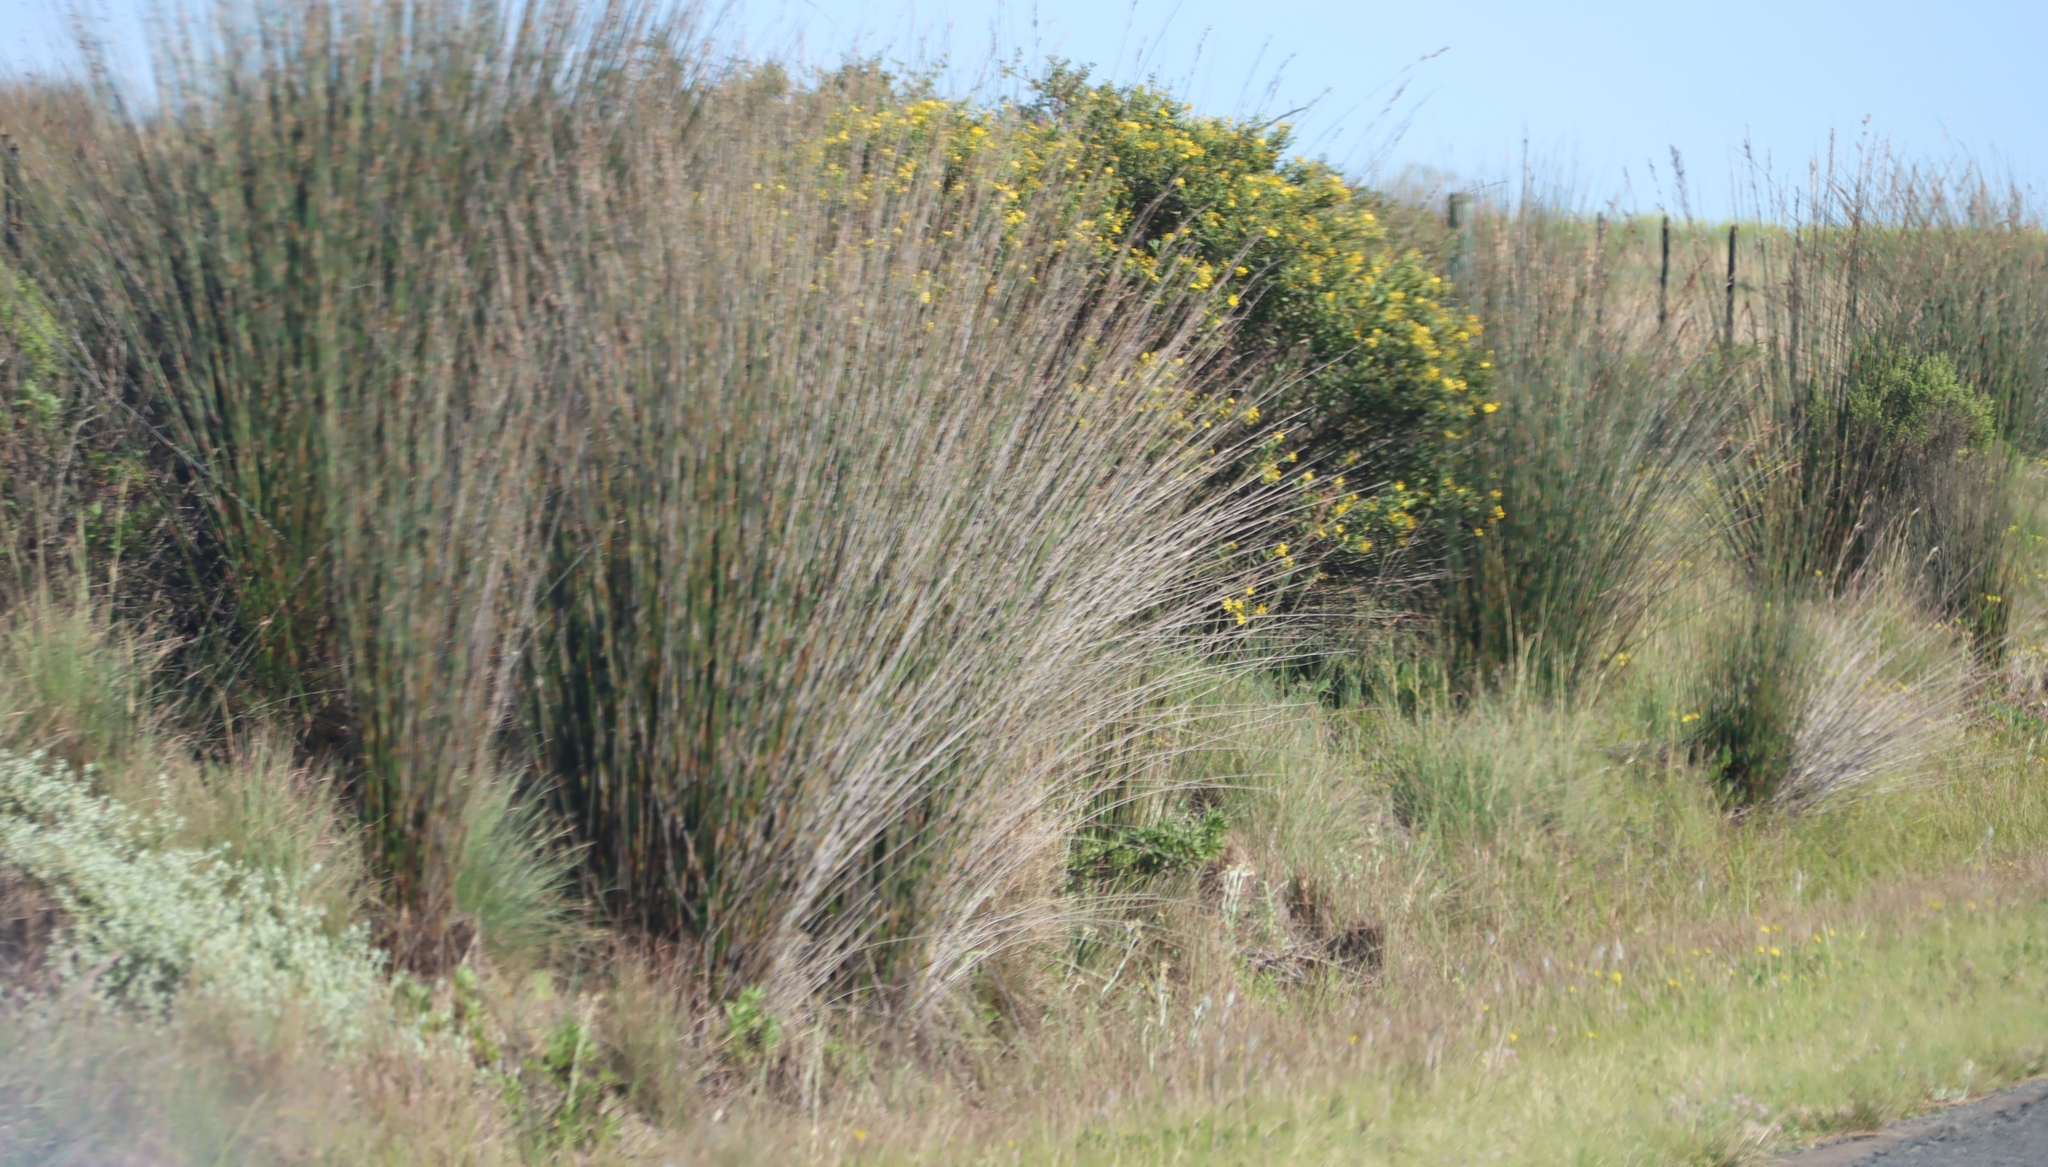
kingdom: Plantae
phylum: Tracheophyta
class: Liliopsida
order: Poales
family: Restionaceae
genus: Thamnochortus
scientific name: Thamnochortus insignis
